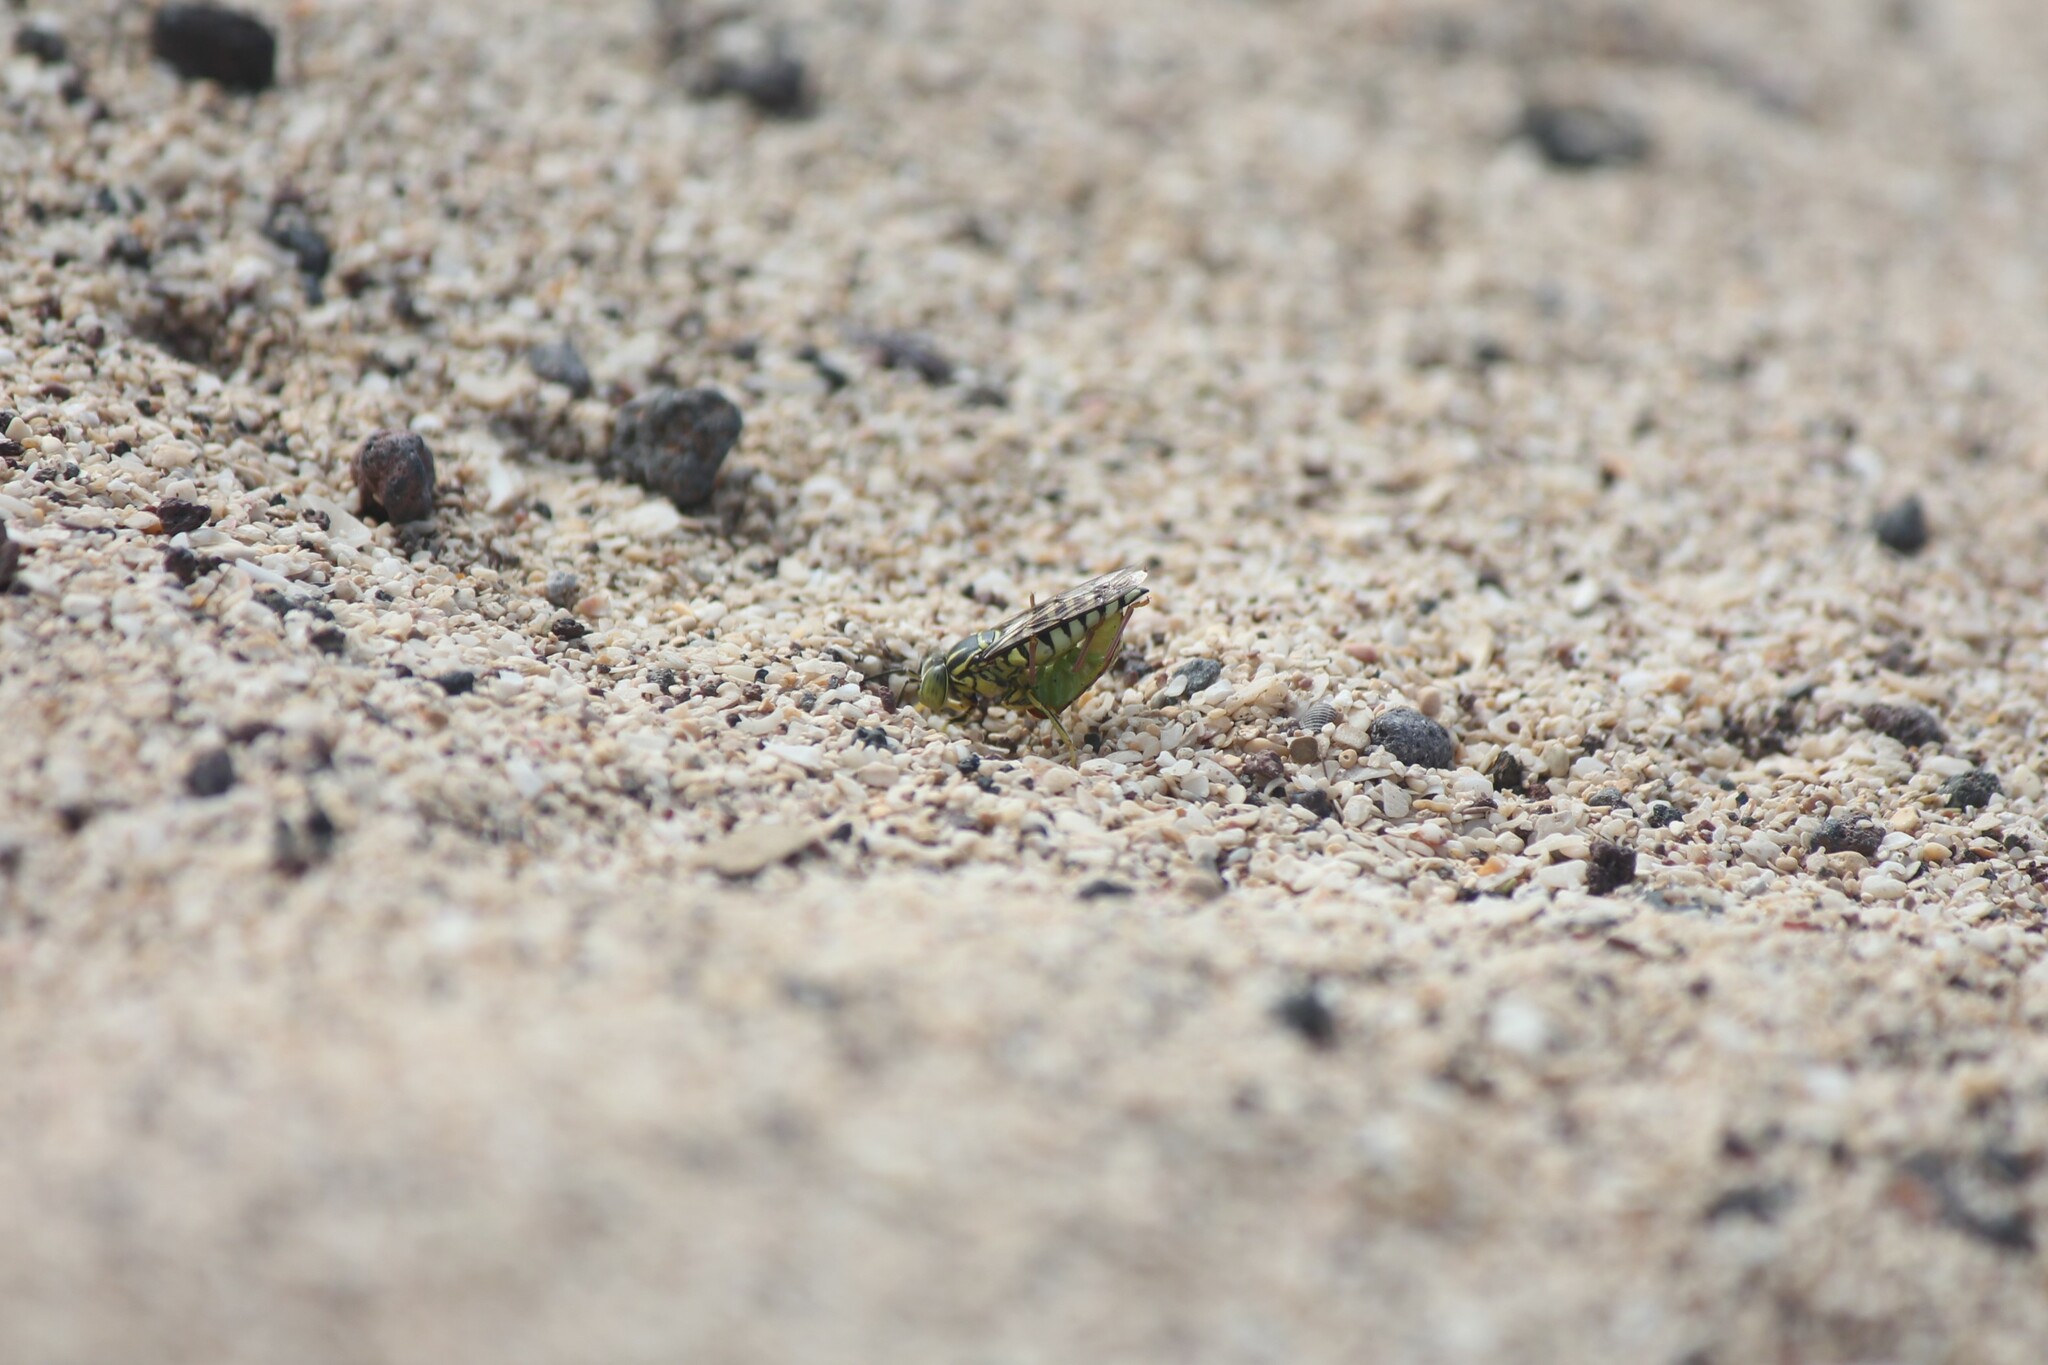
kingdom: Animalia
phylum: Arthropoda
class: Insecta
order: Hymenoptera
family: Crabronidae
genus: Bicyrtes
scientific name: Bicyrtes variegatus
